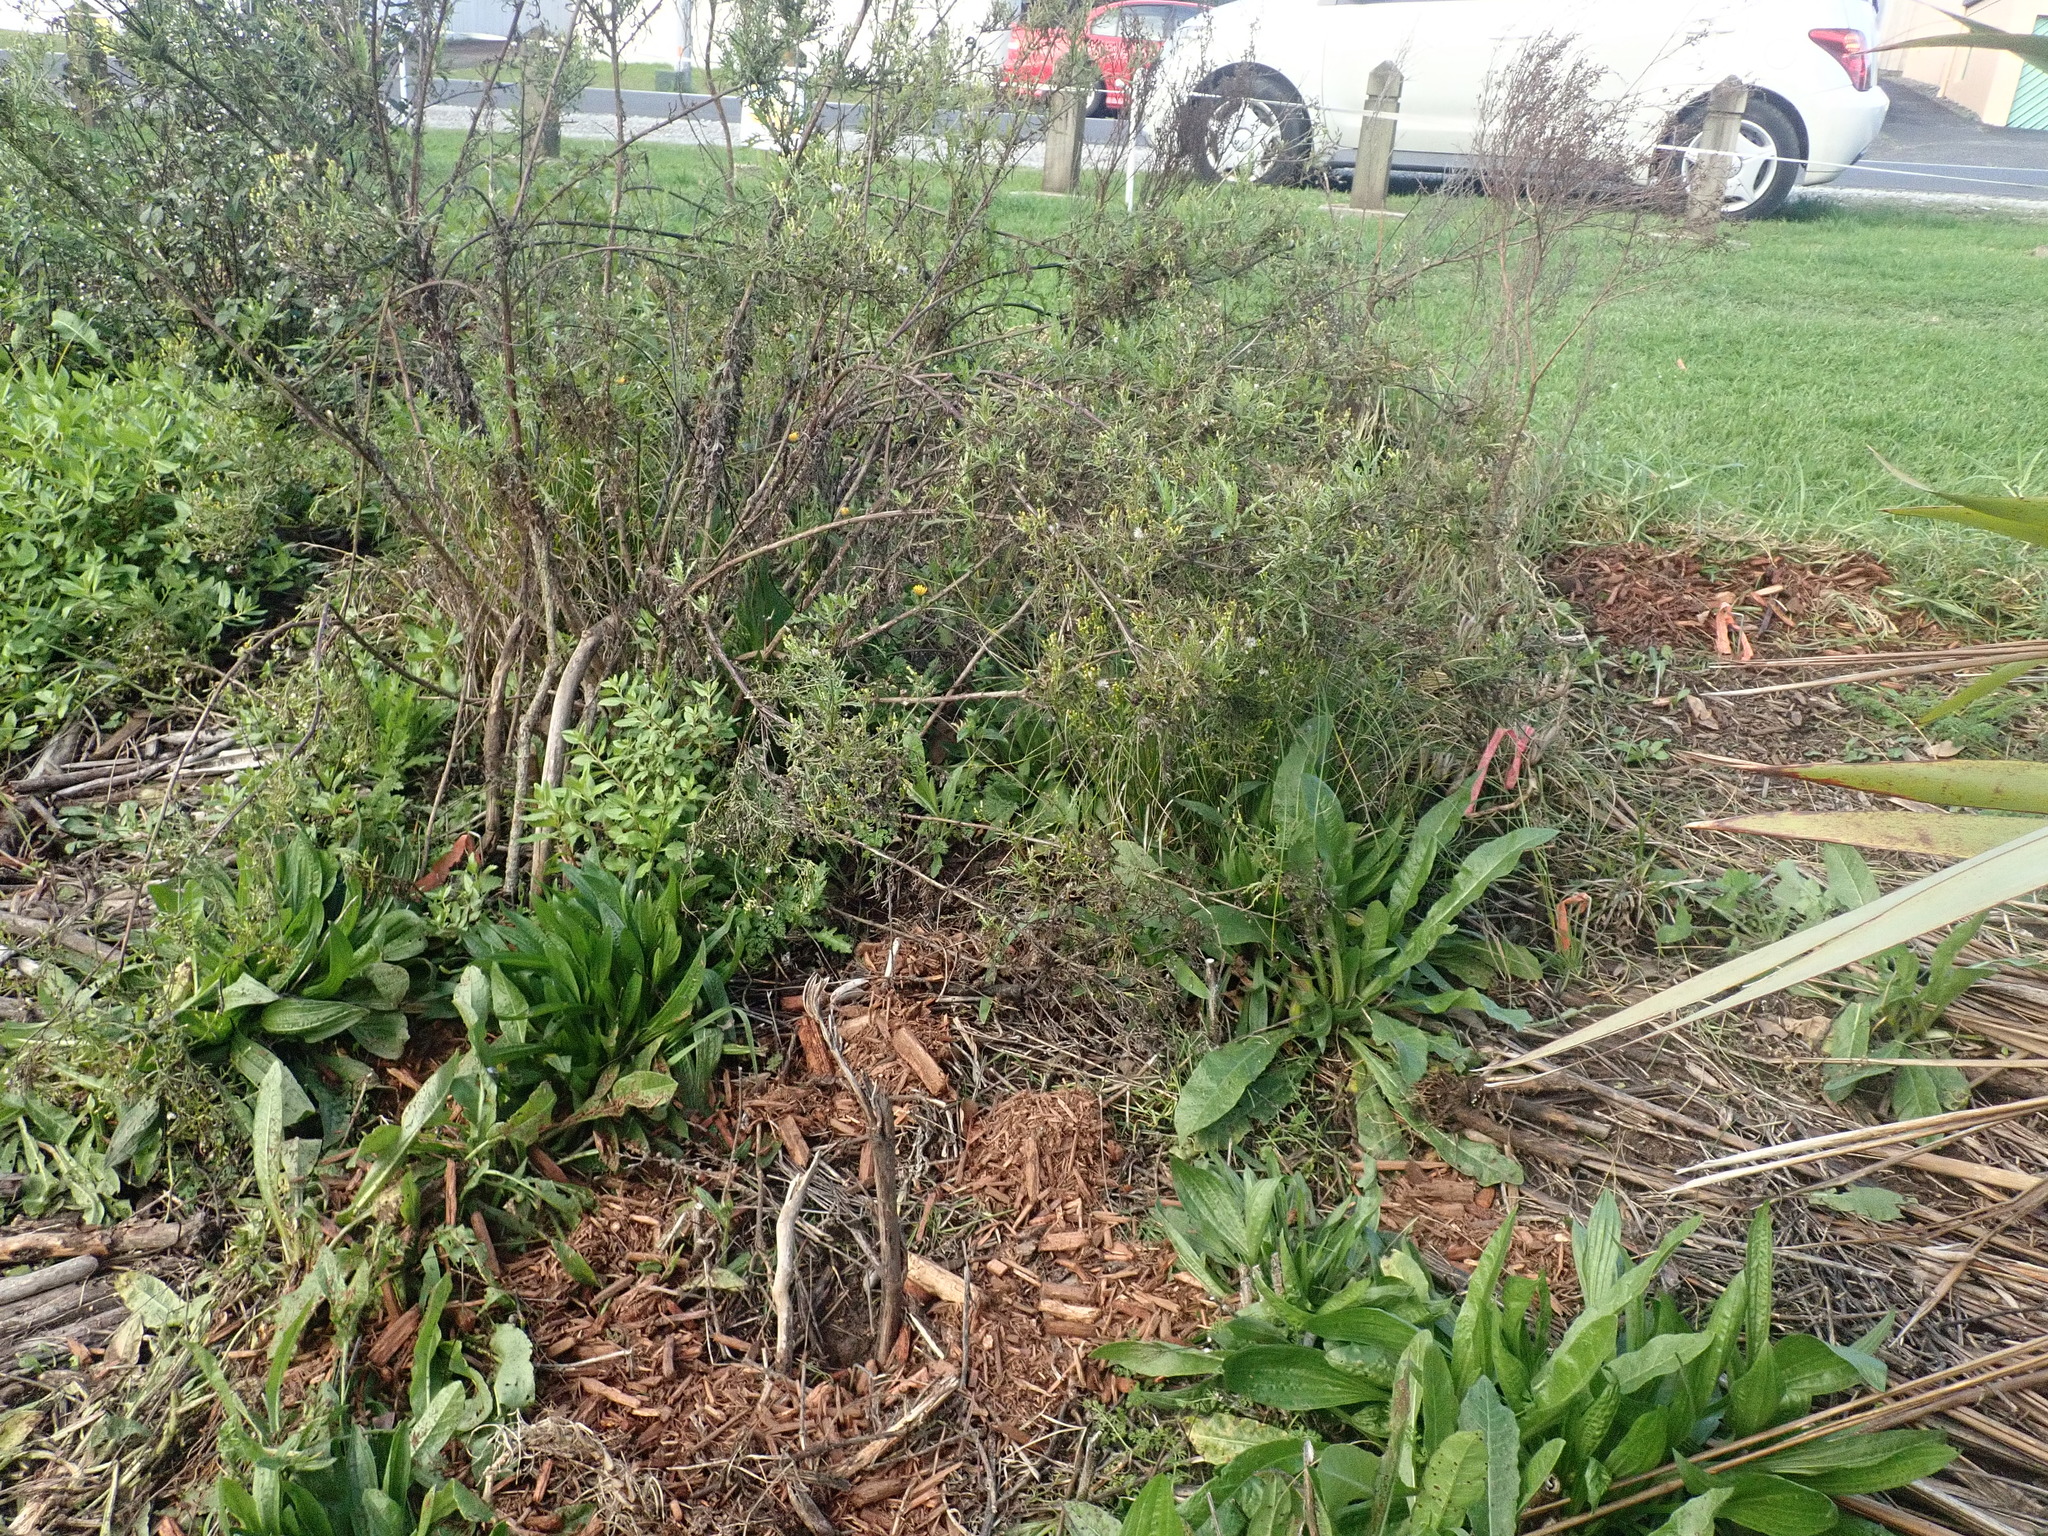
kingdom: Plantae
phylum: Tracheophyta
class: Magnoliopsida
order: Asterales
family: Asteraceae
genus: Senecio
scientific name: Senecio esleri
